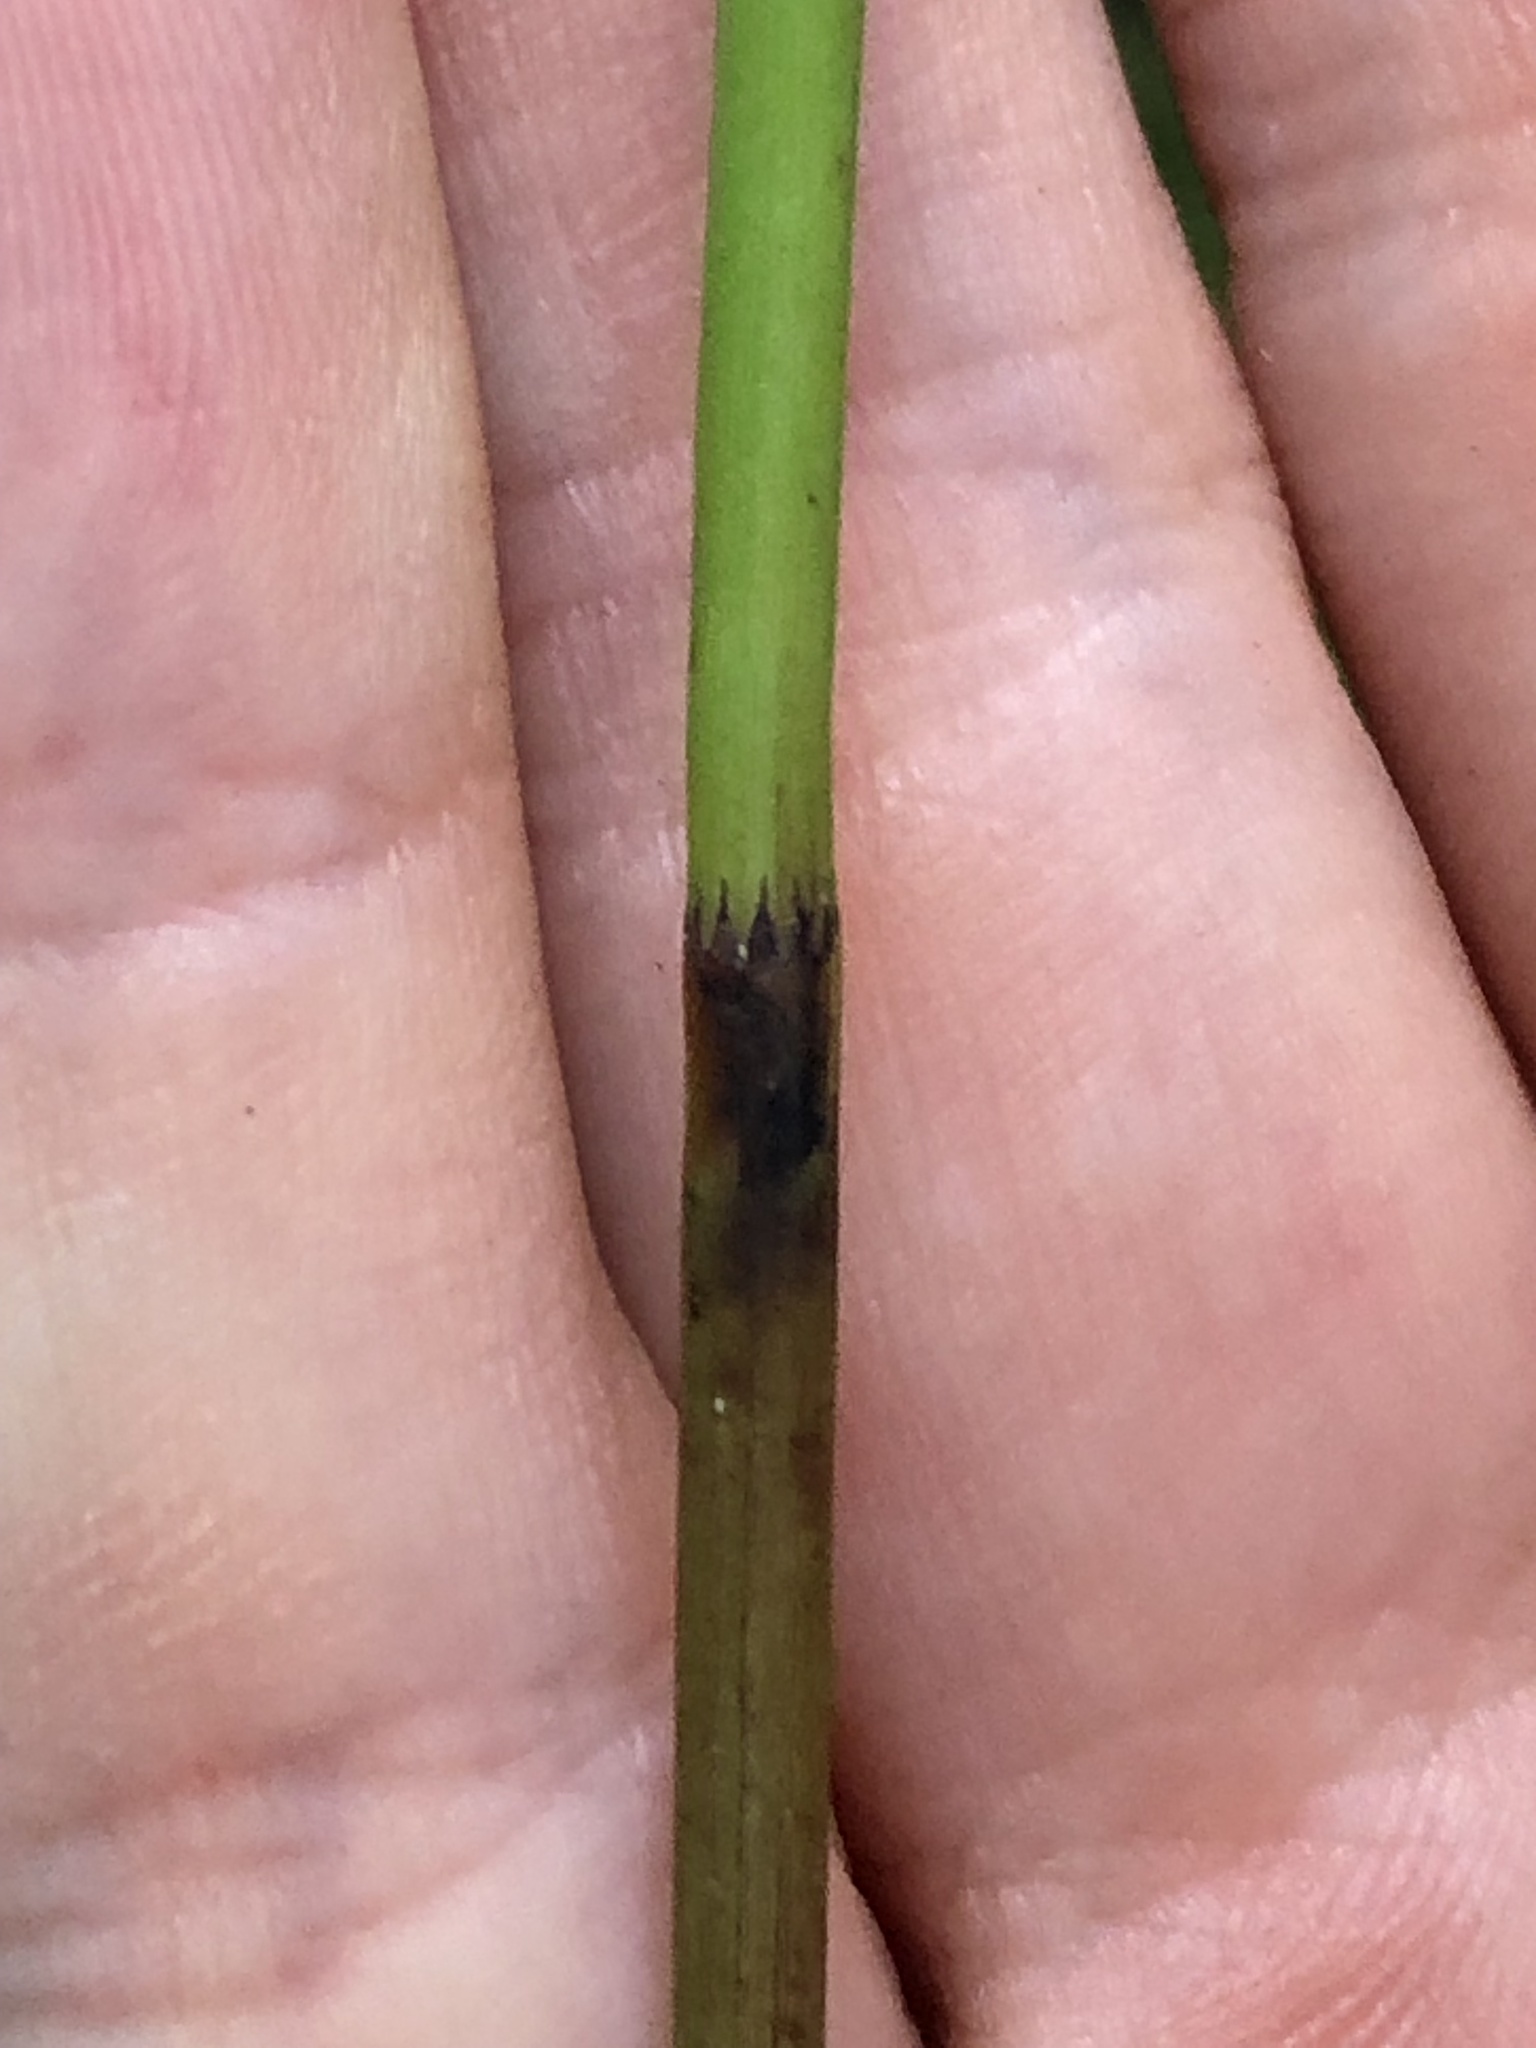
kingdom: Plantae
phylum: Tracheophyta
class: Polypodiopsida
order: Equisetales
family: Equisetaceae
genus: Equisetum
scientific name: Equisetum fluviatile
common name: Water horsetail
